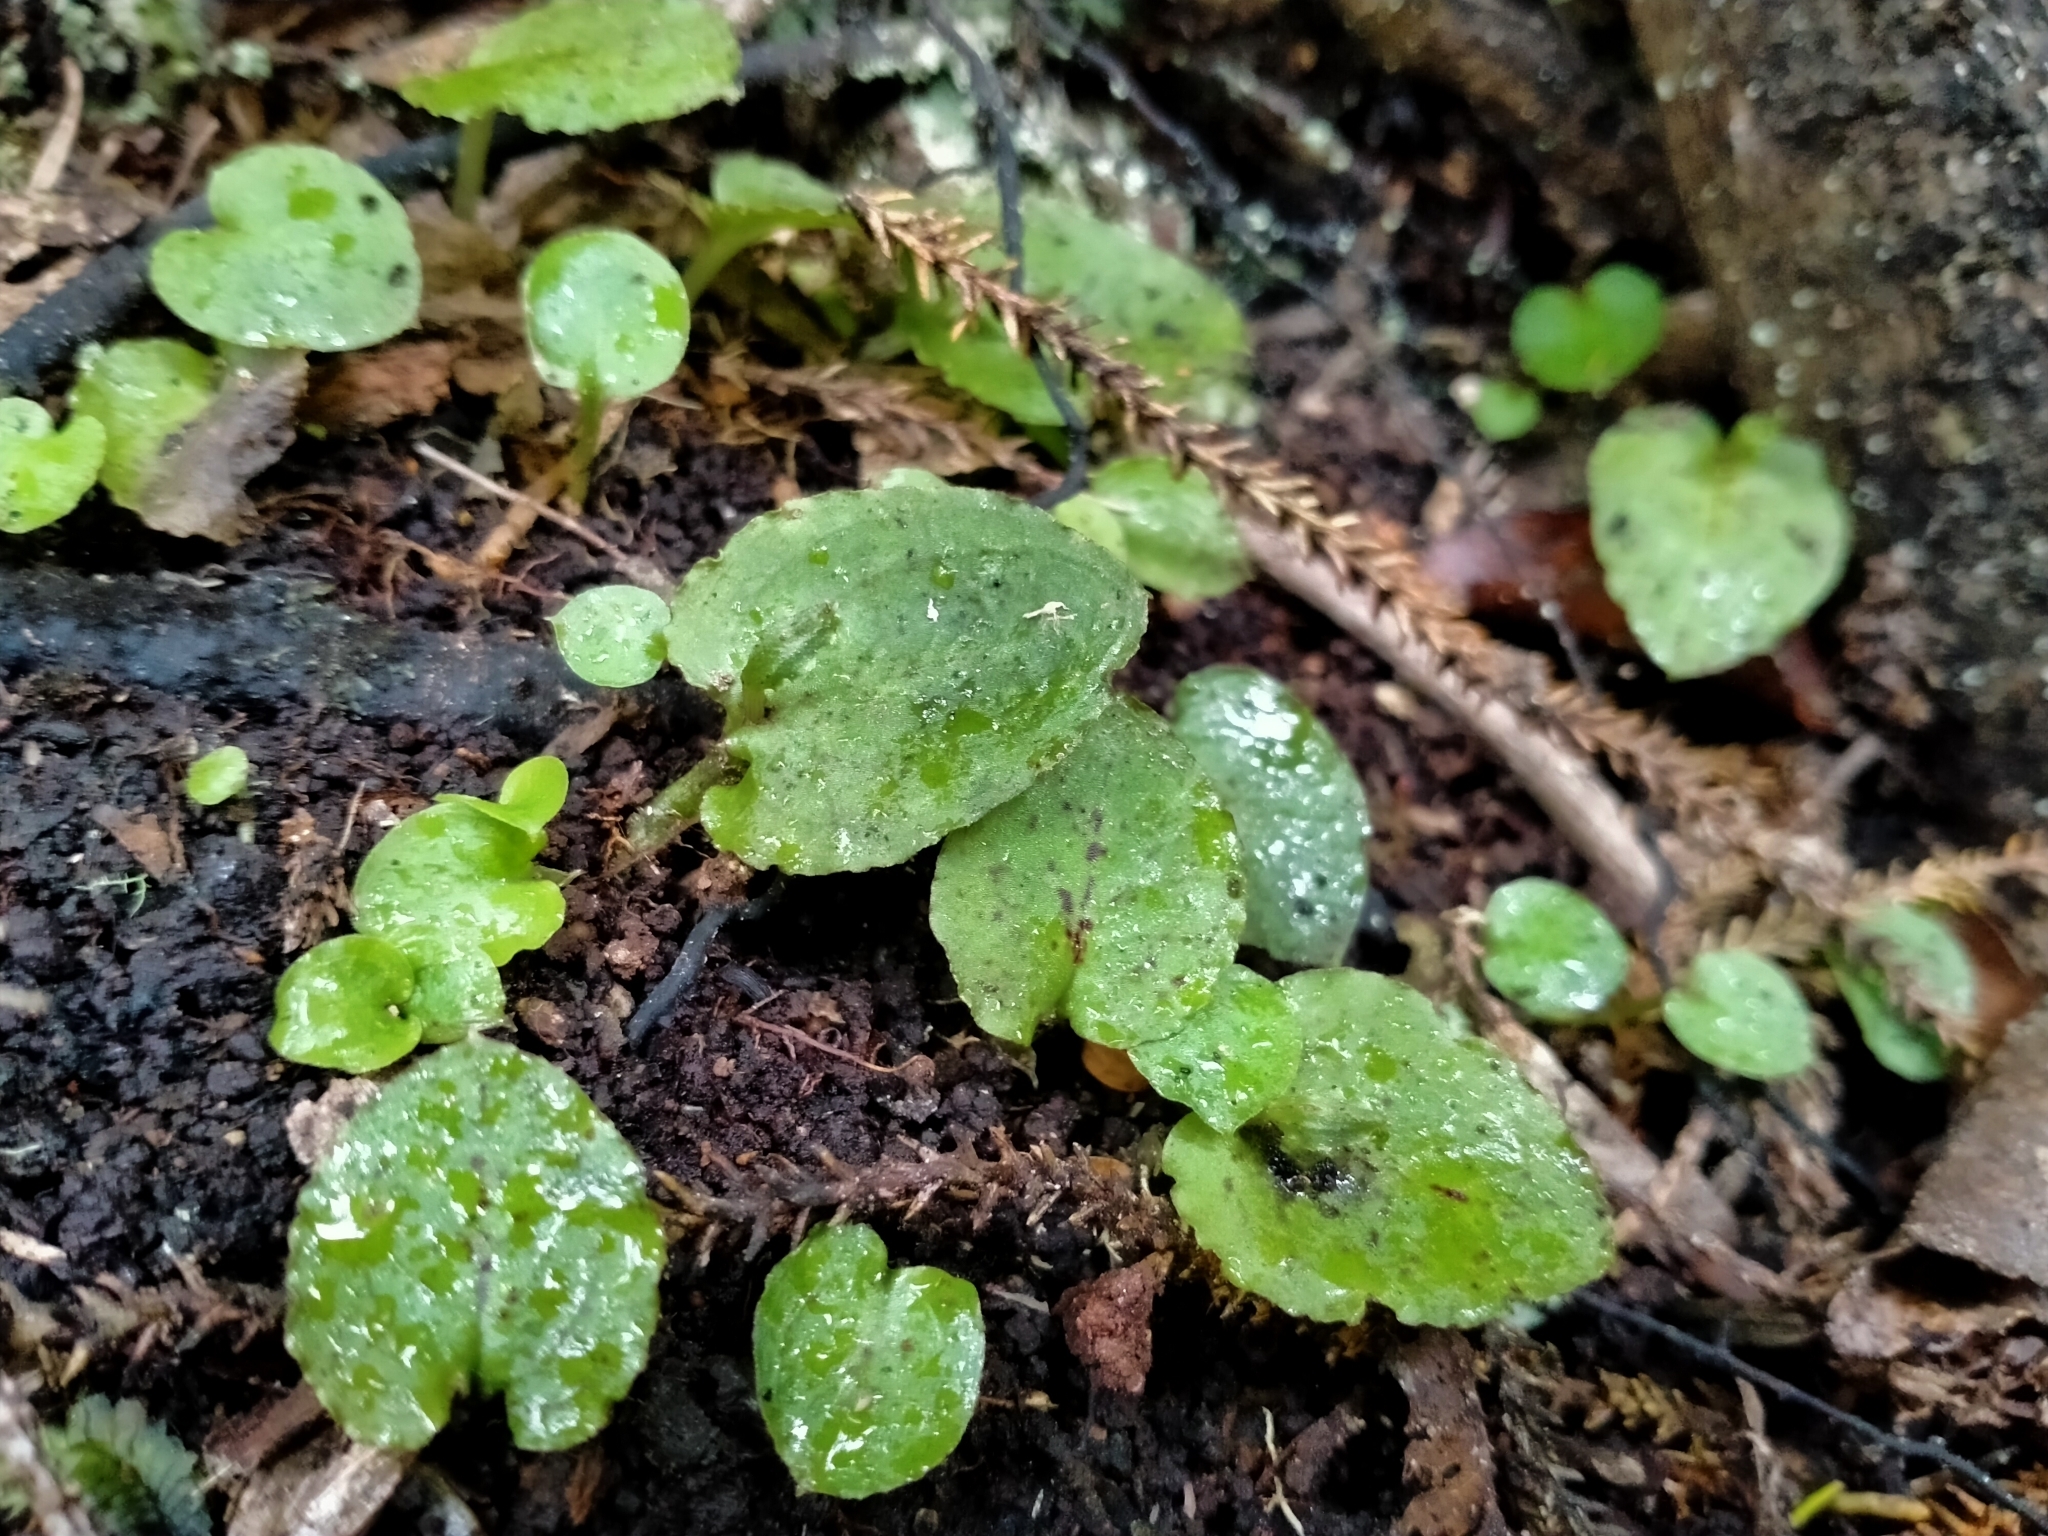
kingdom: Plantae
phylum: Tracheophyta
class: Liliopsida
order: Asparagales
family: Orchidaceae
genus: Corybas
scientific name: Corybas oblongus
